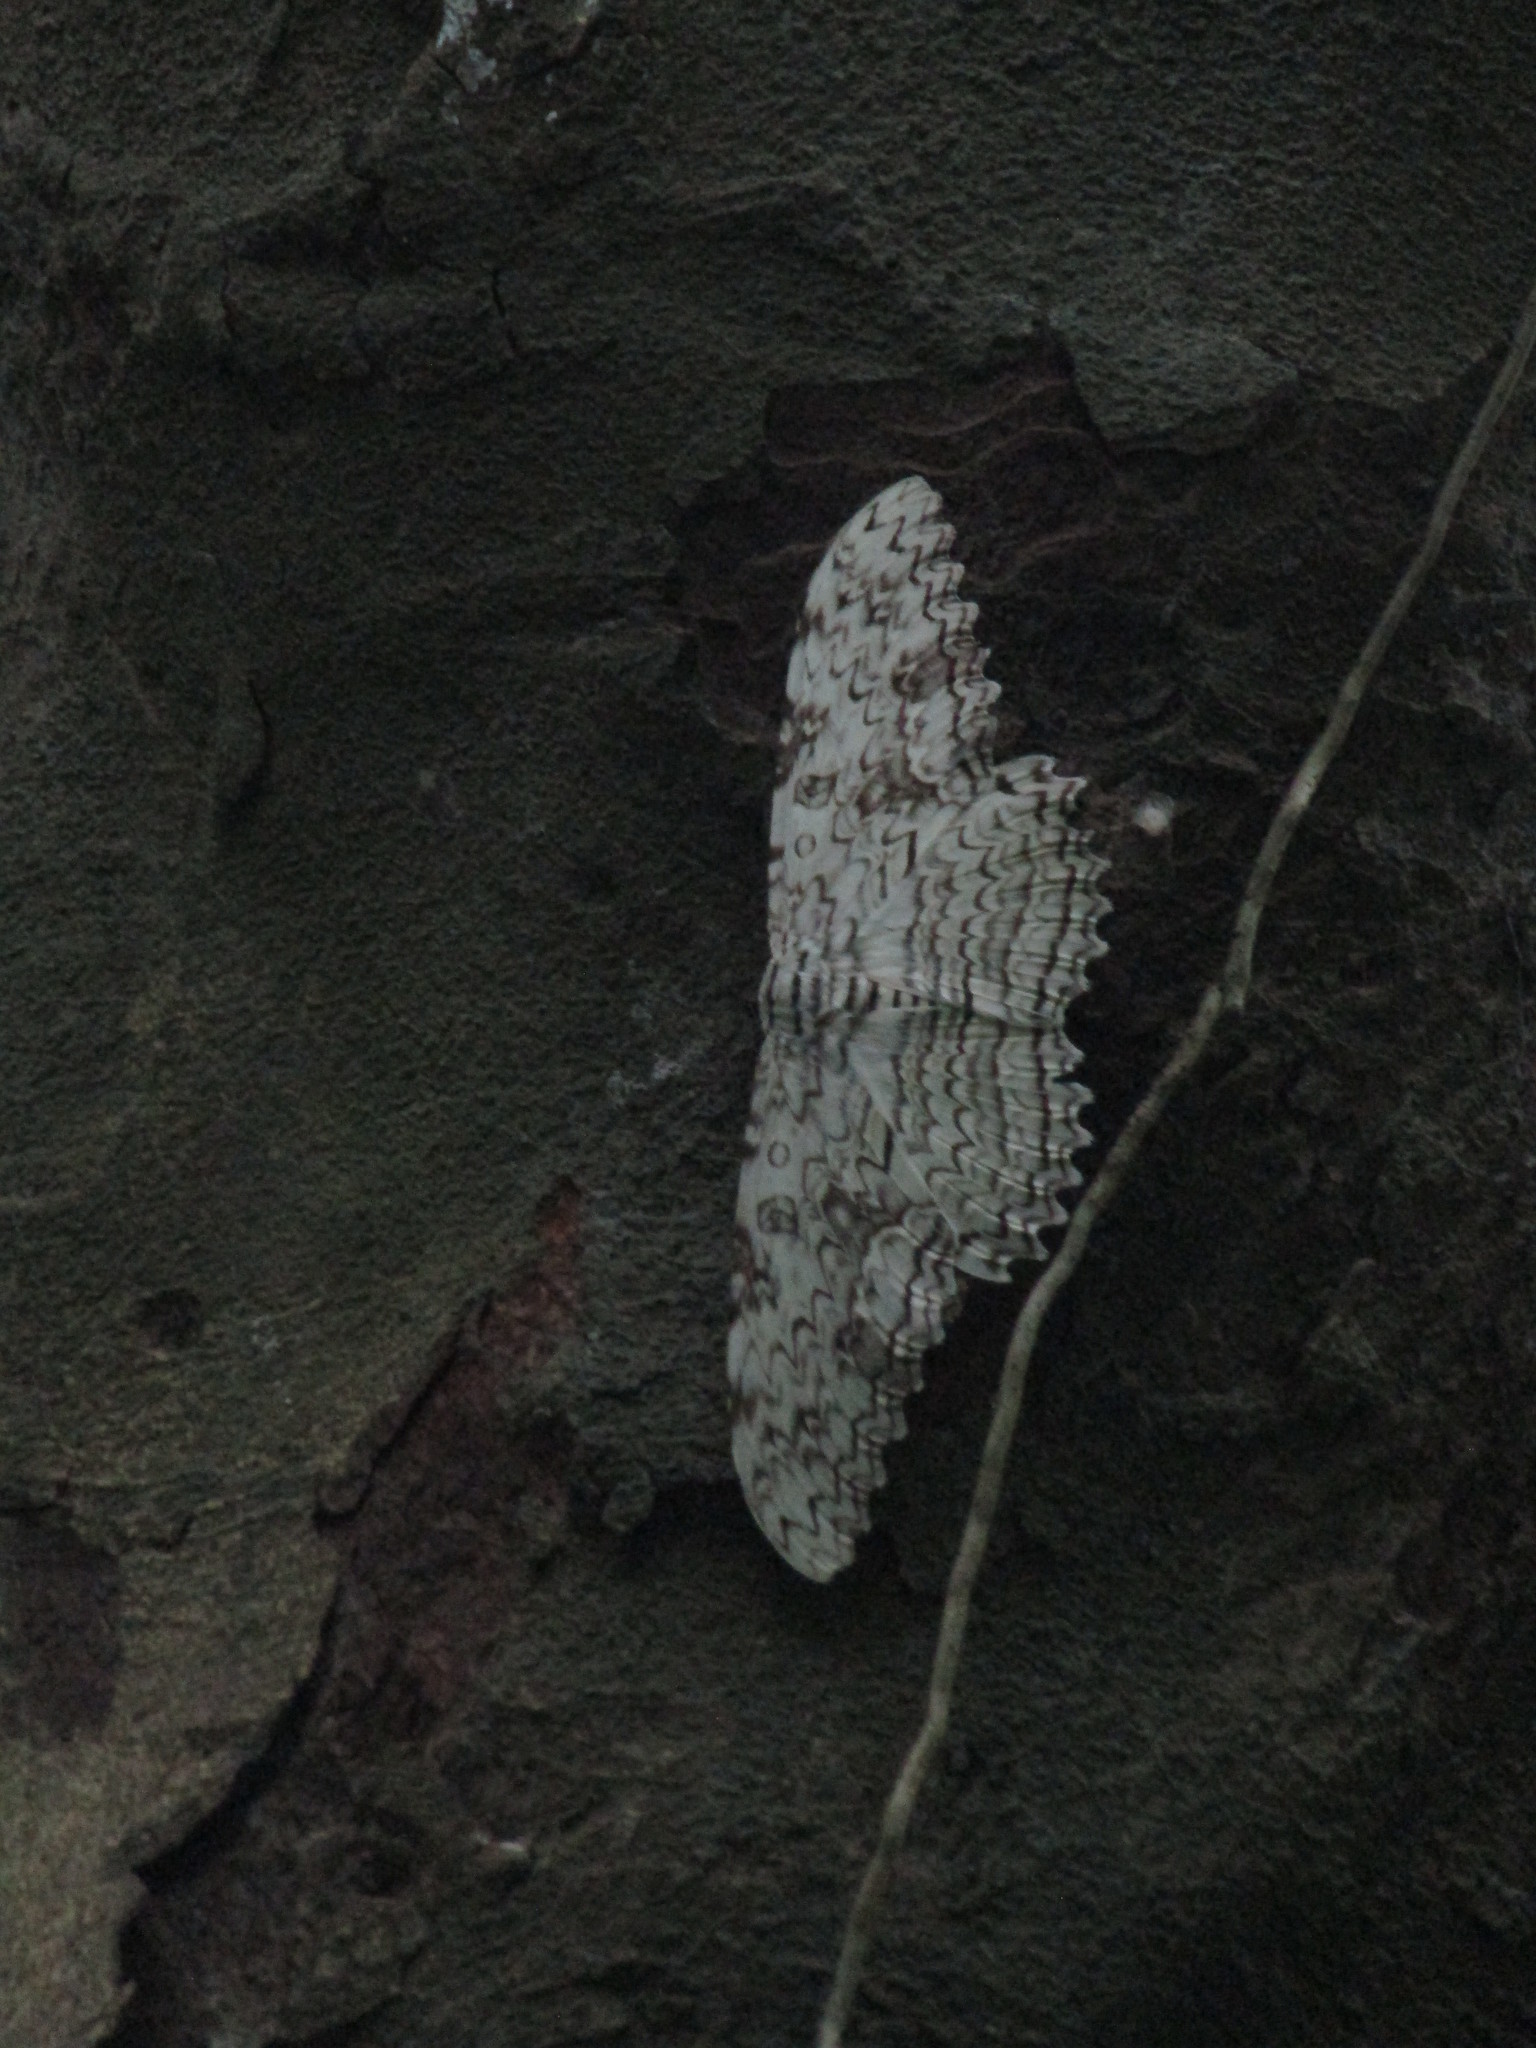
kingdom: Animalia
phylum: Arthropoda
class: Insecta
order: Lepidoptera
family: Erebidae
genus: Thysania
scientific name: Thysania agrippina
